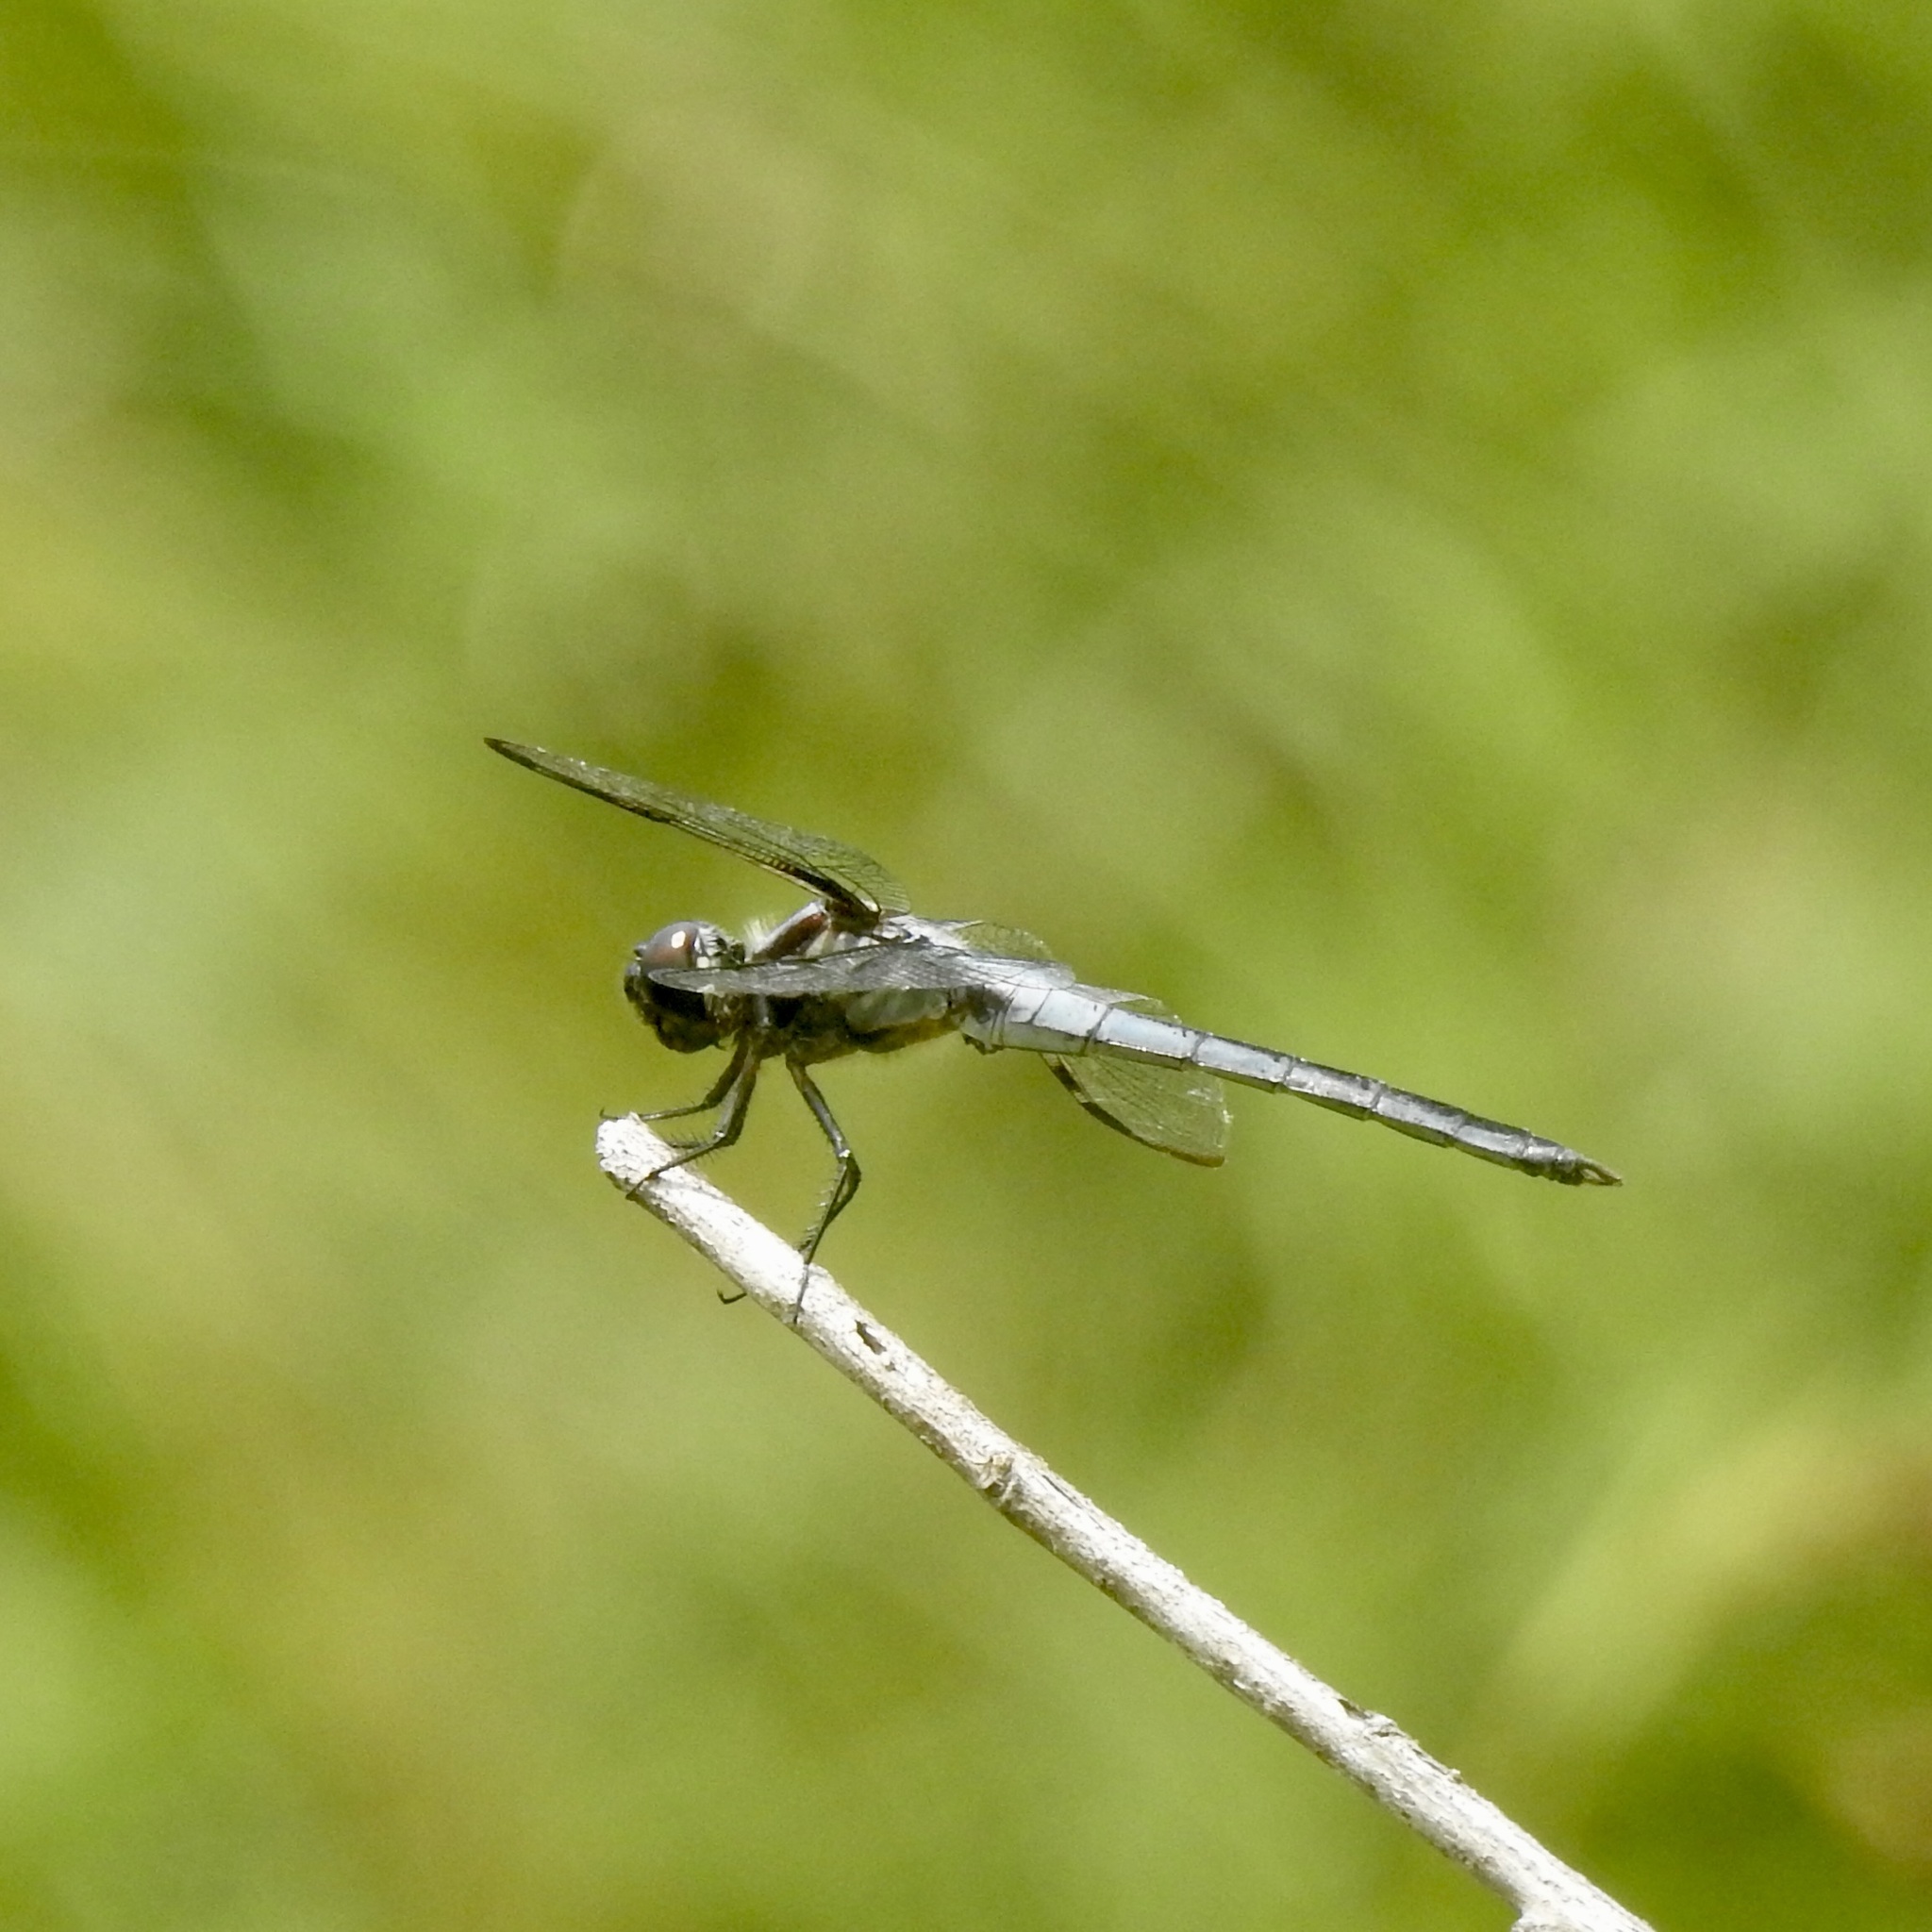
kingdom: Animalia
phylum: Arthropoda
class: Insecta
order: Odonata
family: Libellulidae
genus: Libellula
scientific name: Libellula axilena
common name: Bar-winged skimmer
